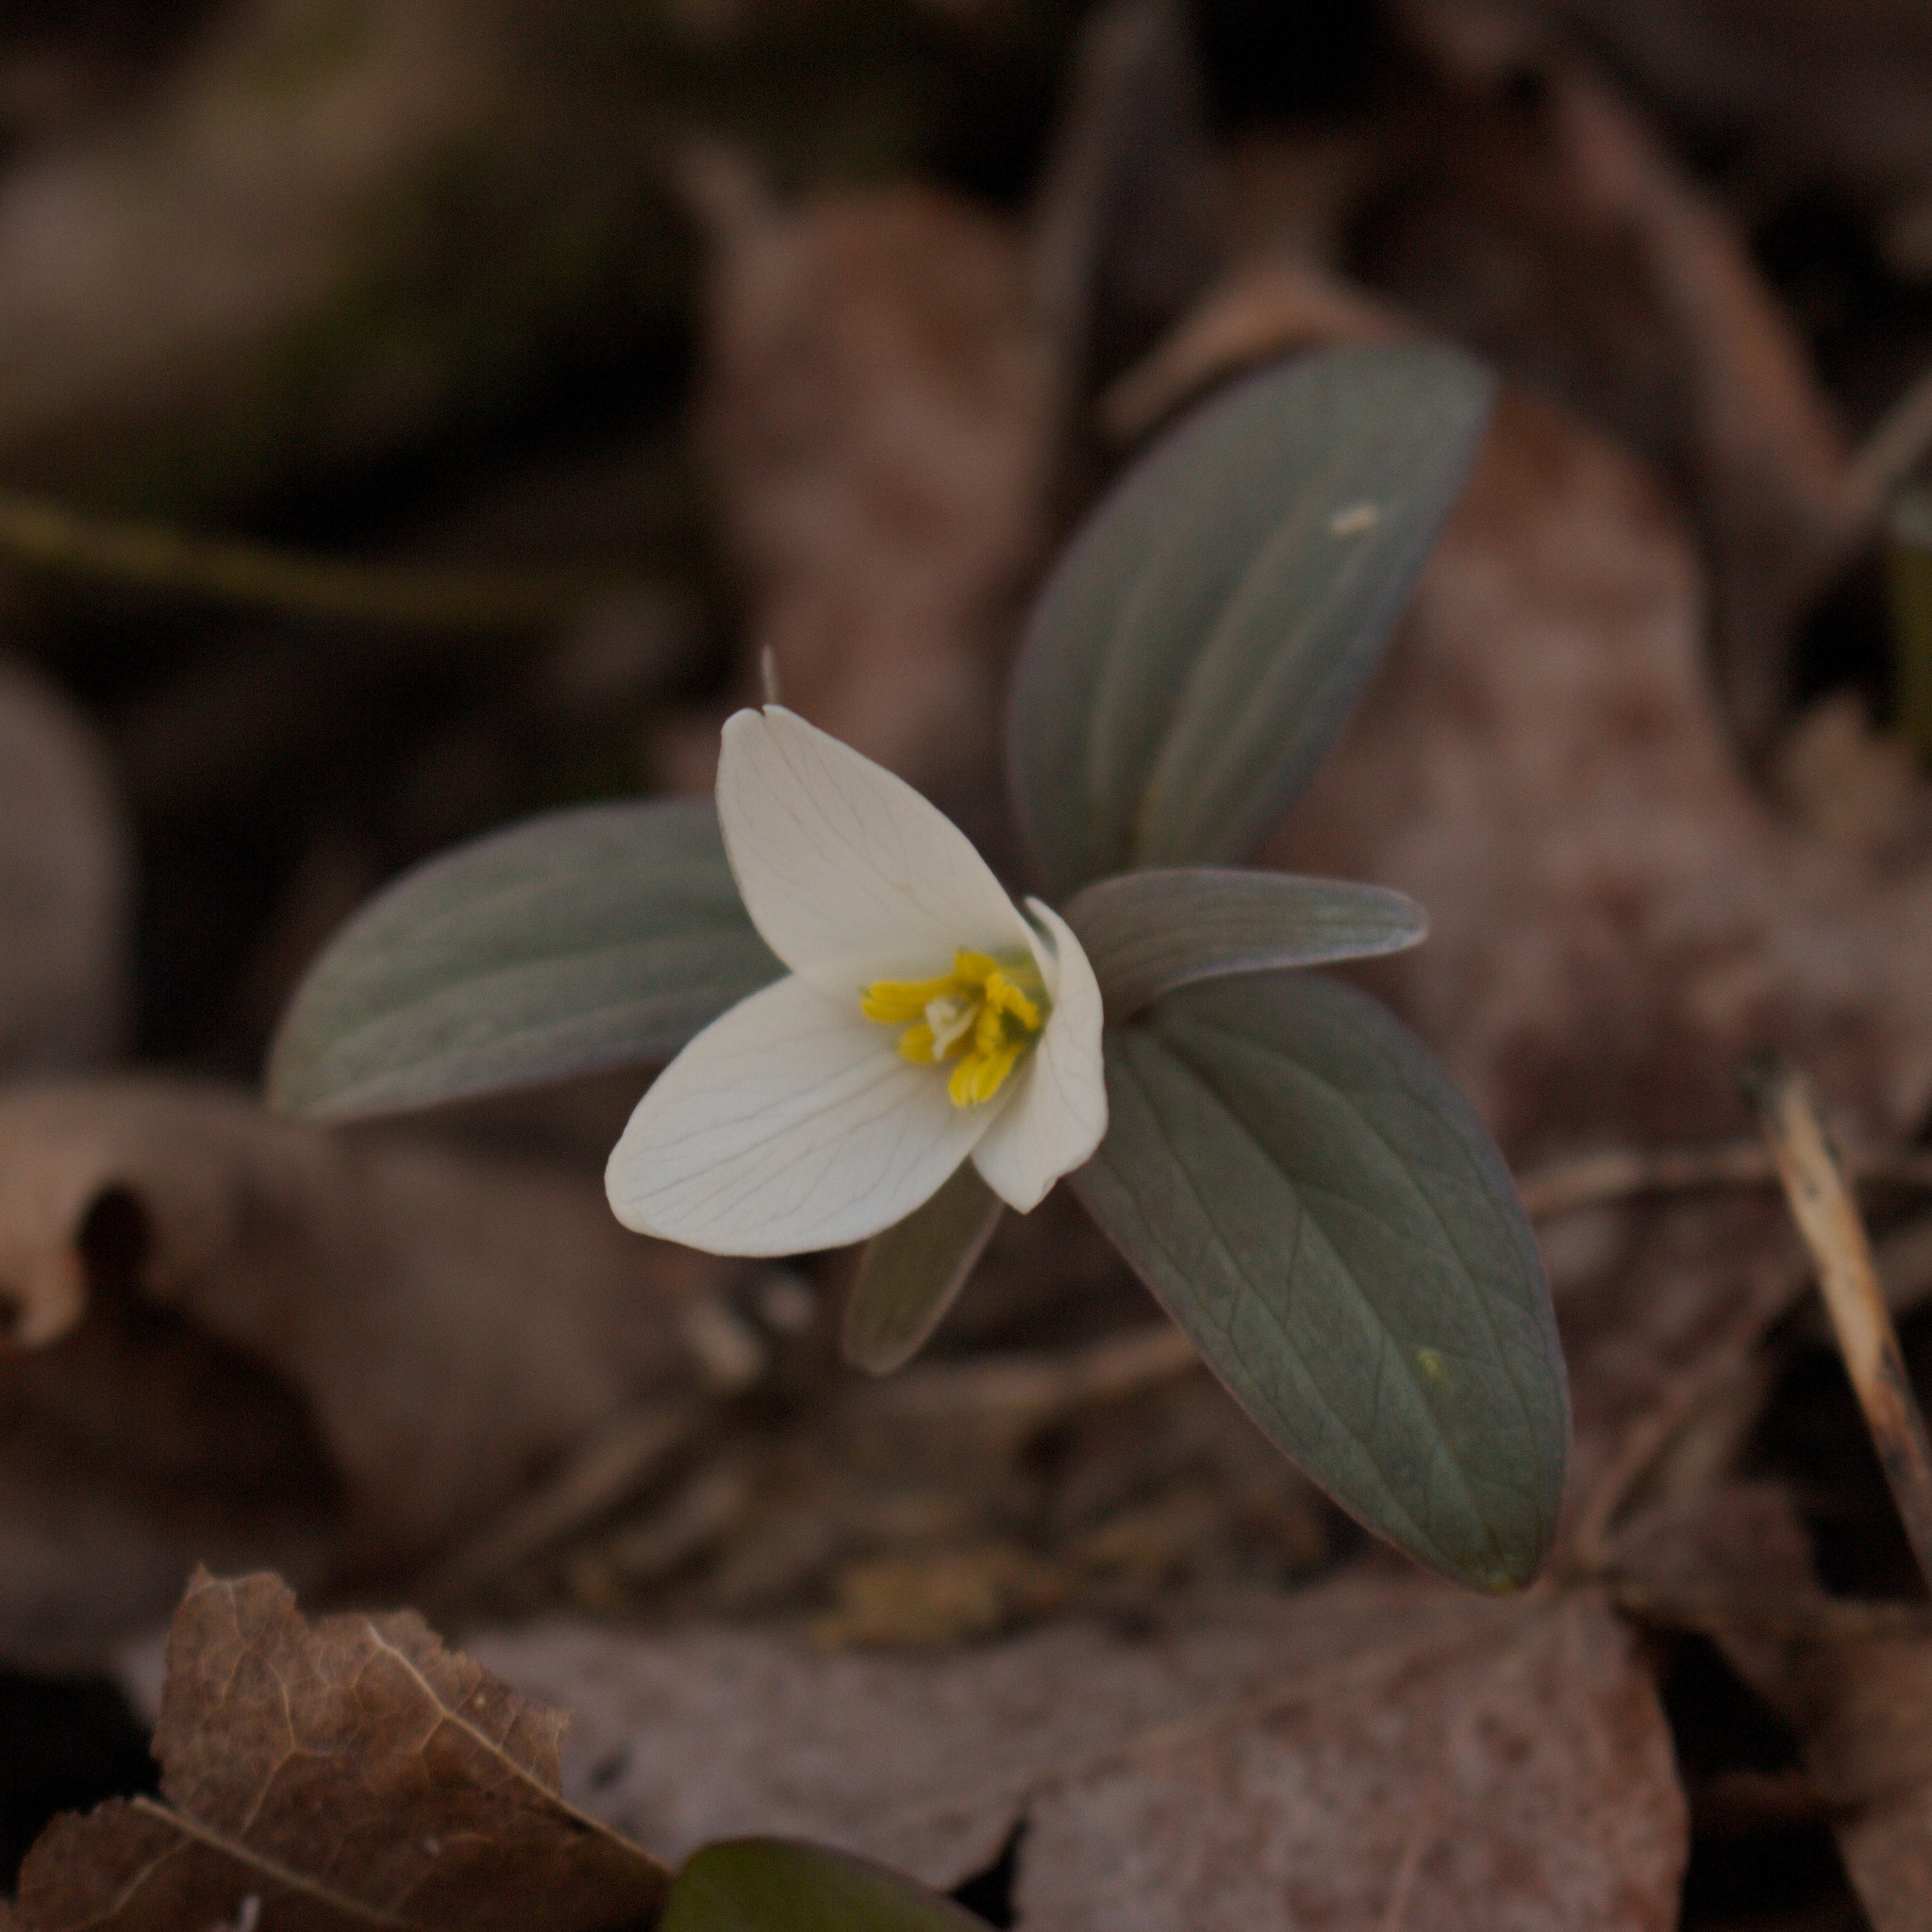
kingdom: Plantae
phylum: Tracheophyta
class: Liliopsida
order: Liliales
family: Melanthiaceae
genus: Trillium
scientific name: Trillium nivale
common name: Dwarf white trillium
